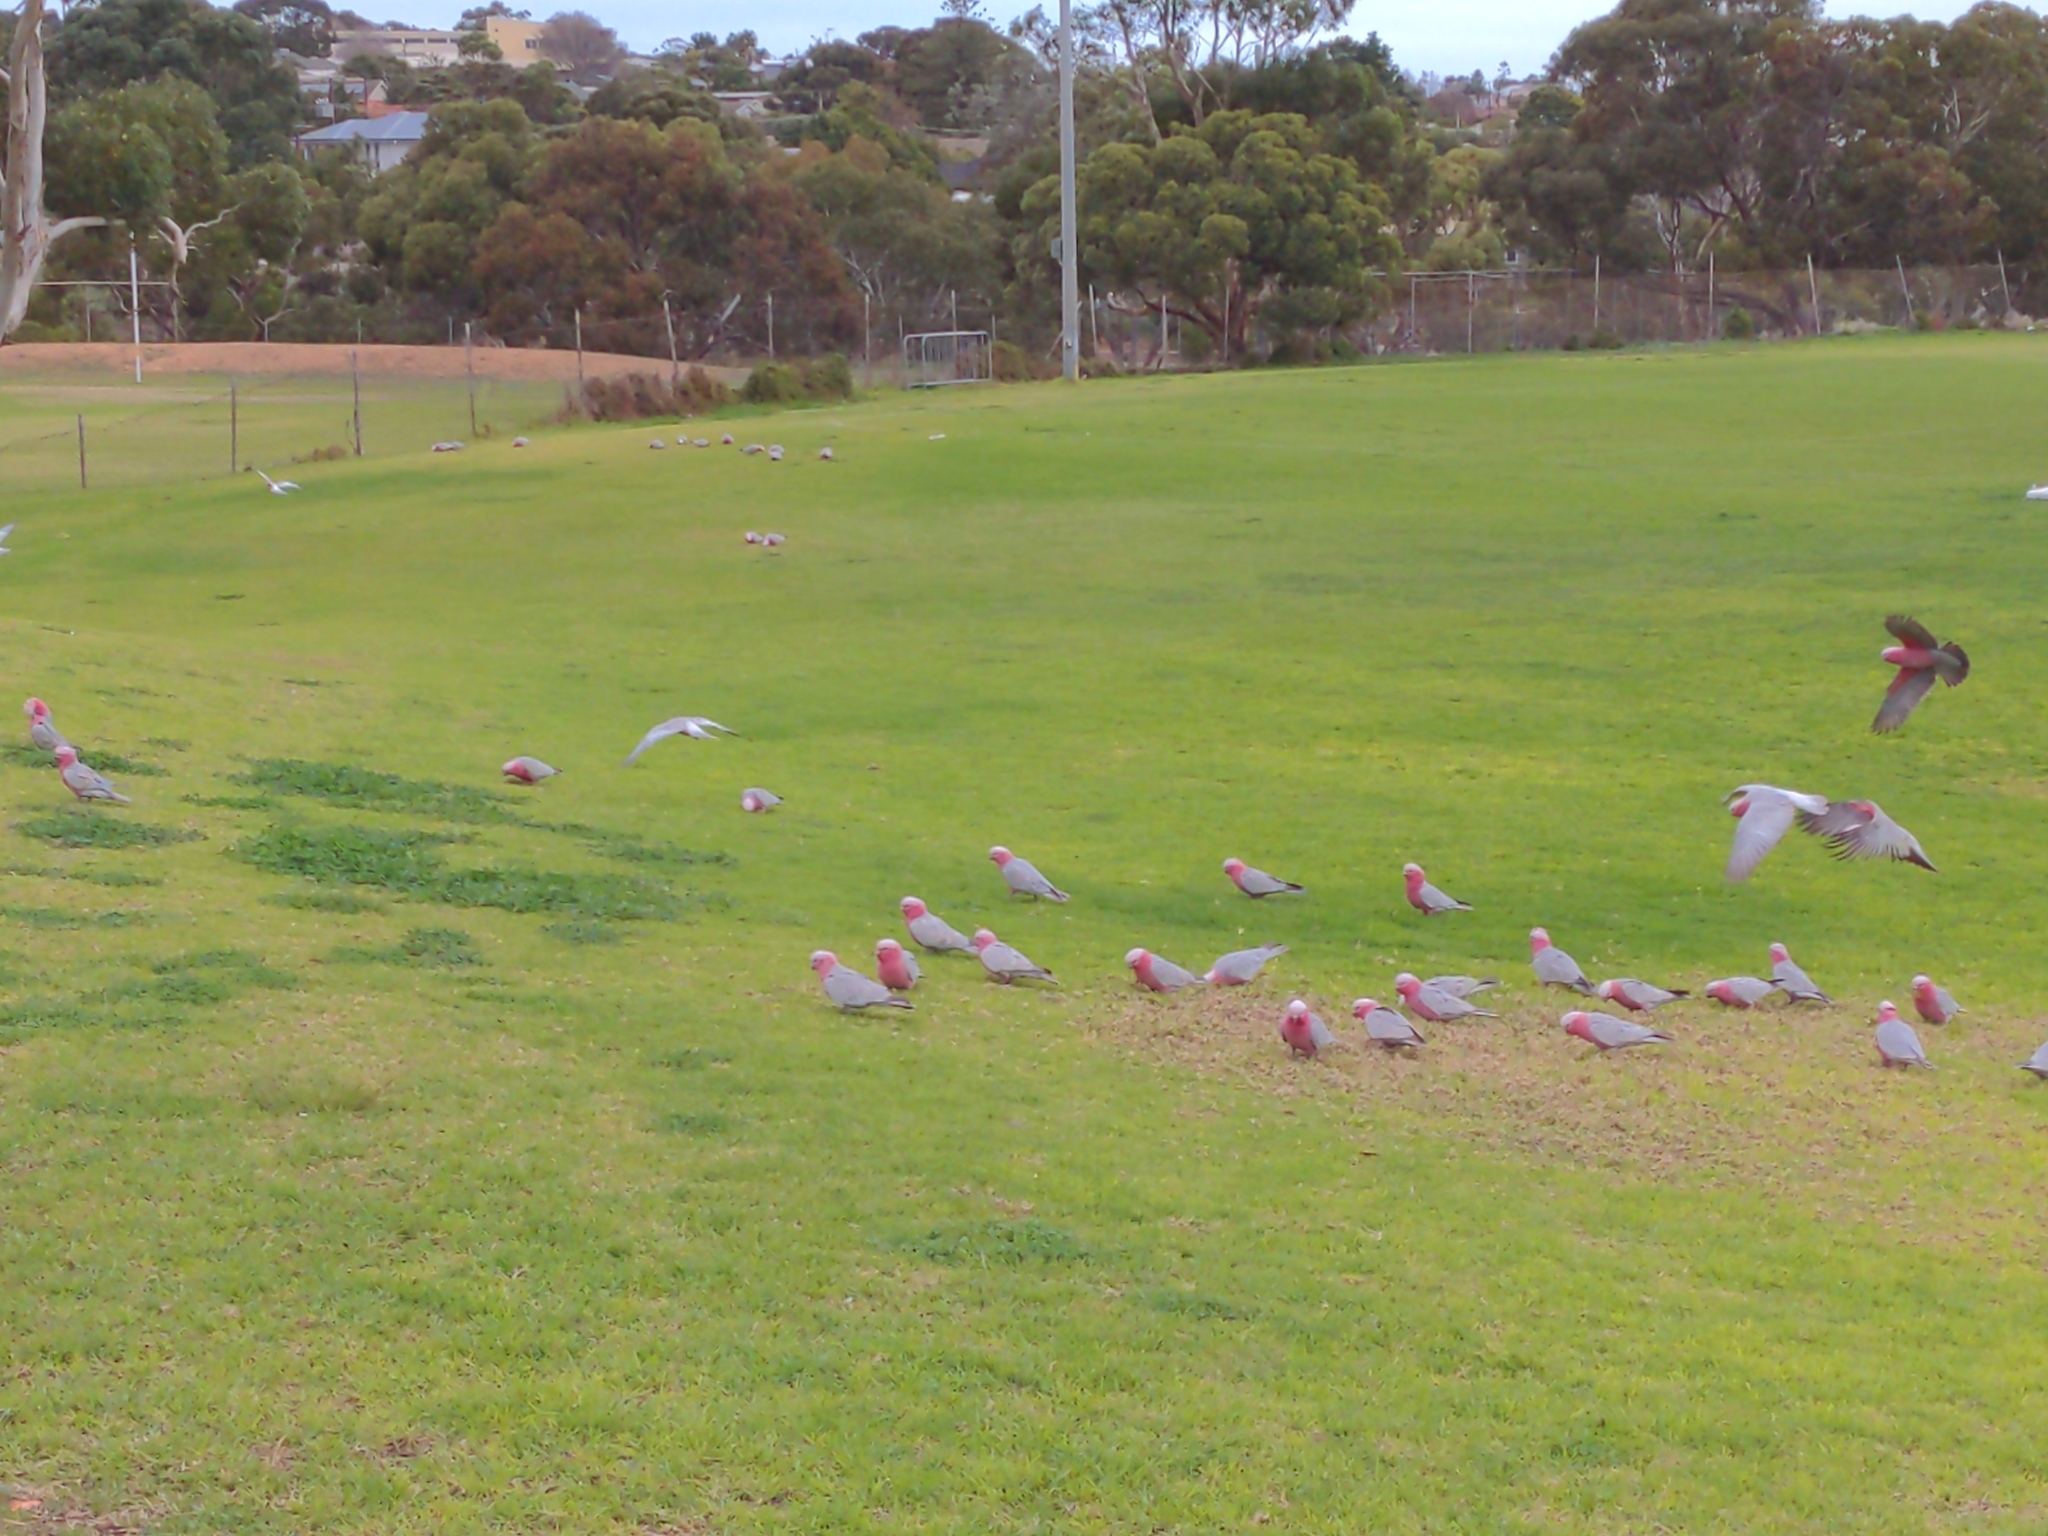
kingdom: Animalia
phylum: Chordata
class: Aves
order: Psittaciformes
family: Psittacidae
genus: Eolophus
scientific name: Eolophus roseicapilla
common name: Galah
